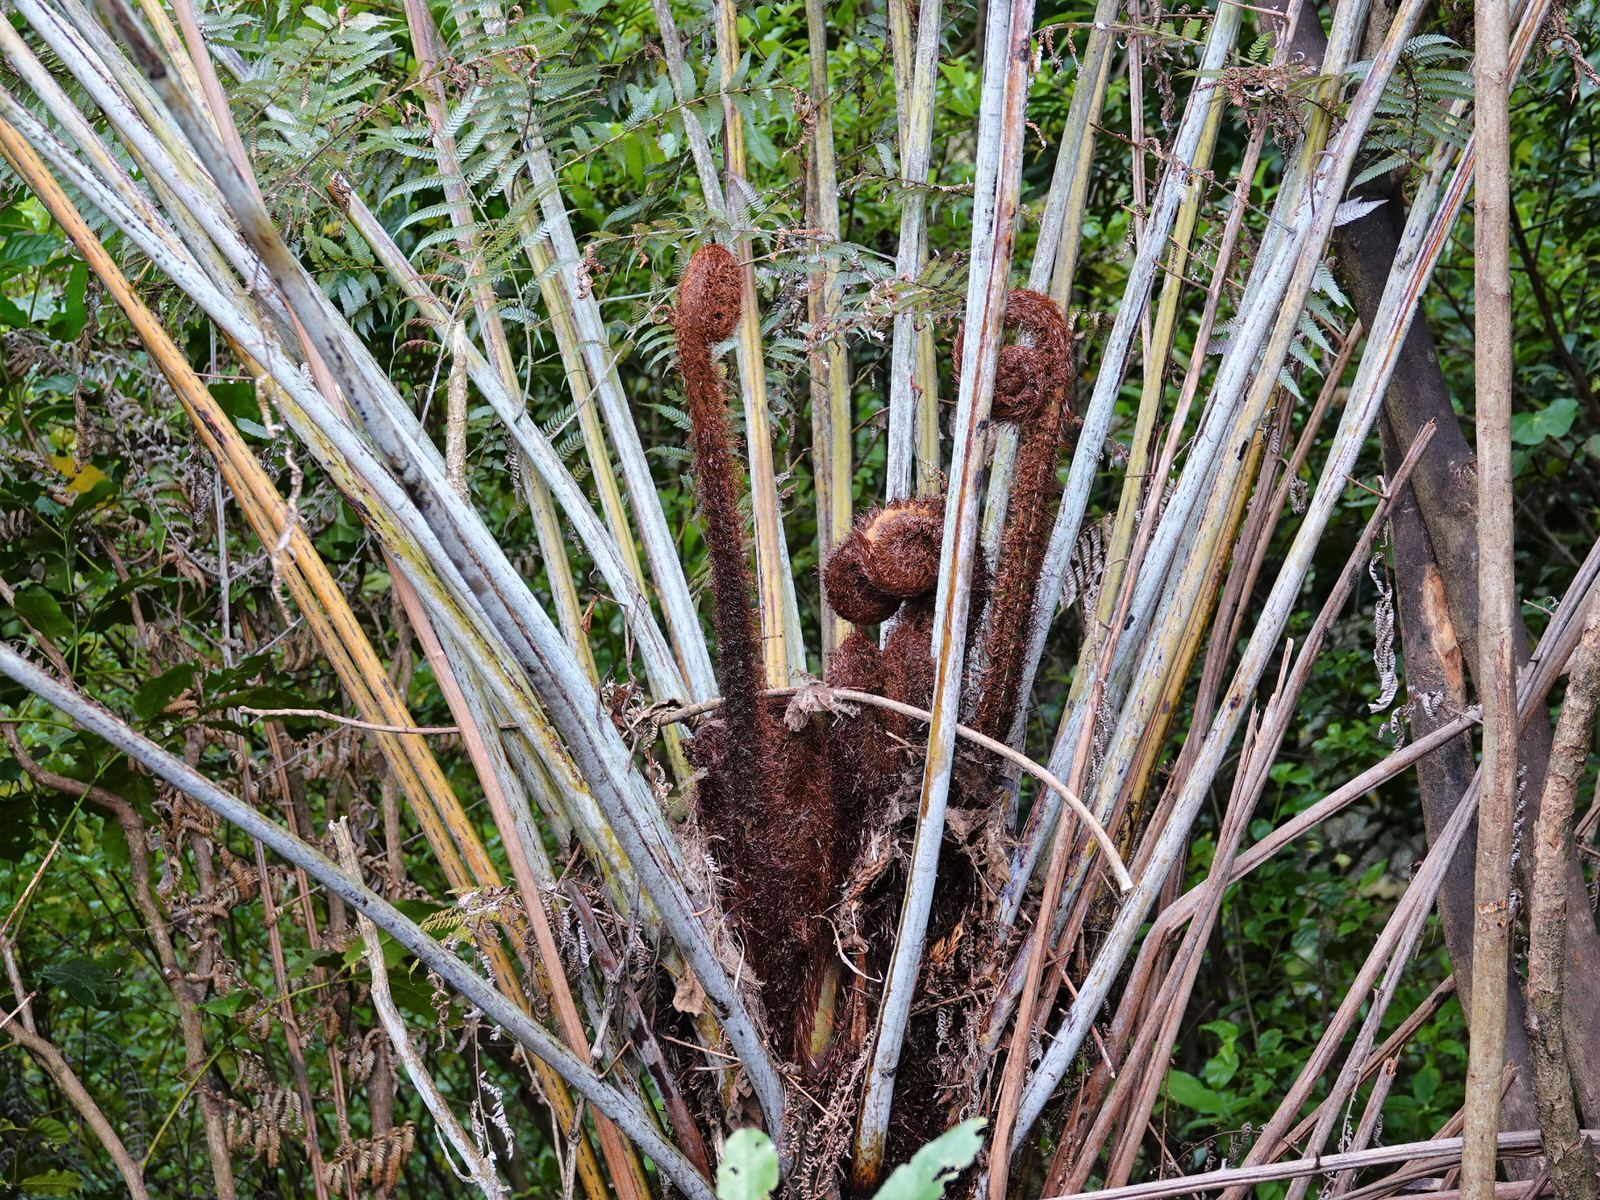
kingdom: Plantae
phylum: Tracheophyta
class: Polypodiopsida
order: Cyatheales
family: Cyatheaceae
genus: Alsophila
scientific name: Alsophila dealbata
